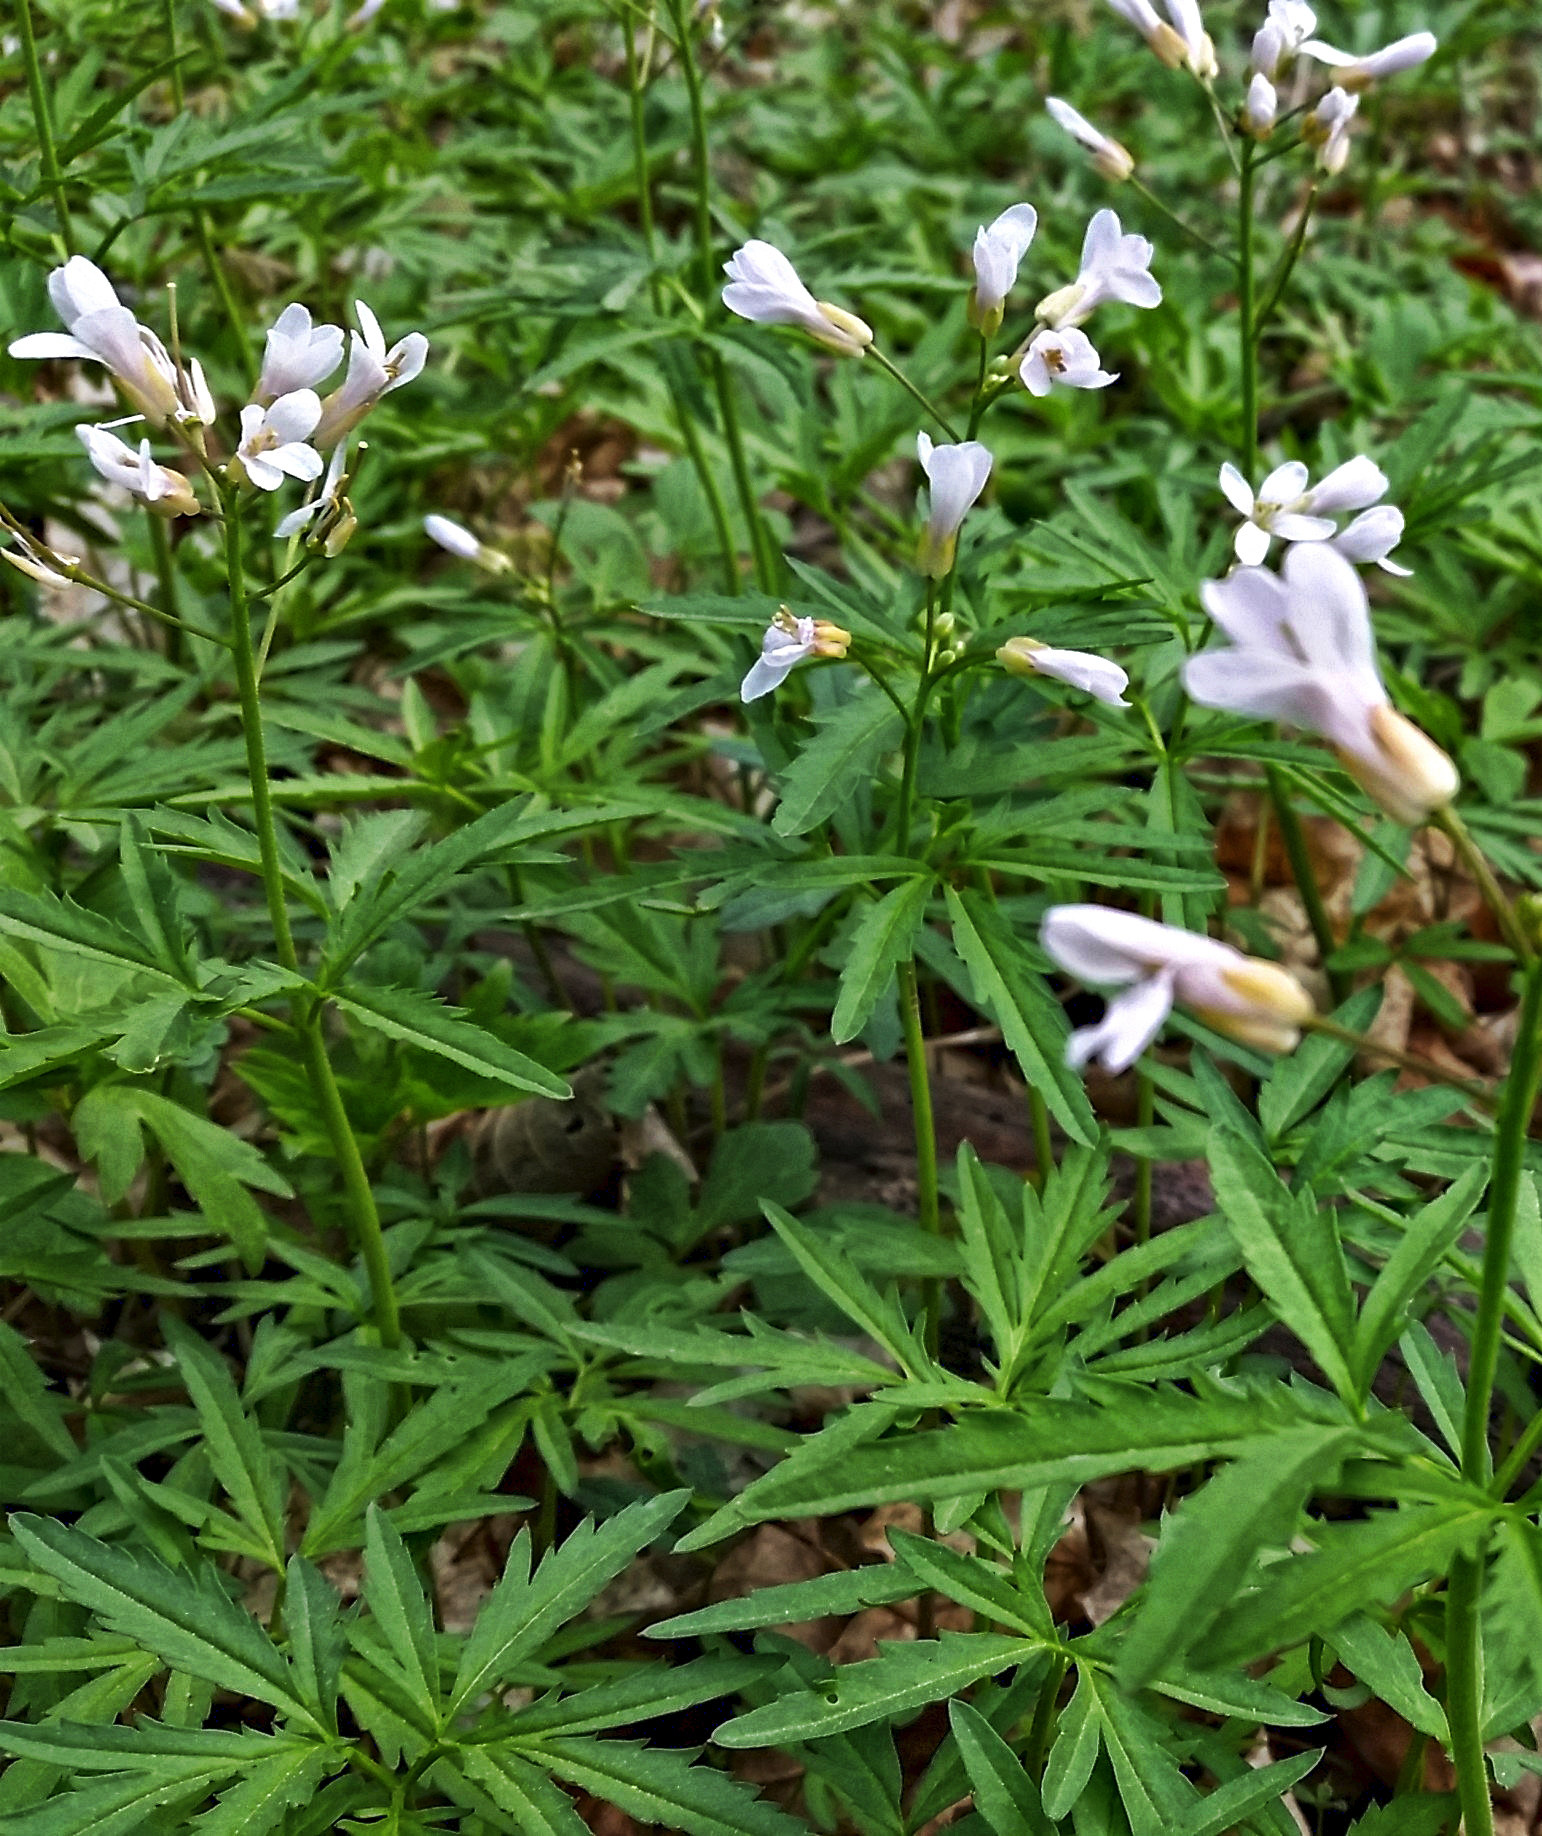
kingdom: Plantae
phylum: Tracheophyta
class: Magnoliopsida
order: Brassicales
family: Brassicaceae
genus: Cardamine
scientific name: Cardamine concatenata
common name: Cut-leaf toothcup
